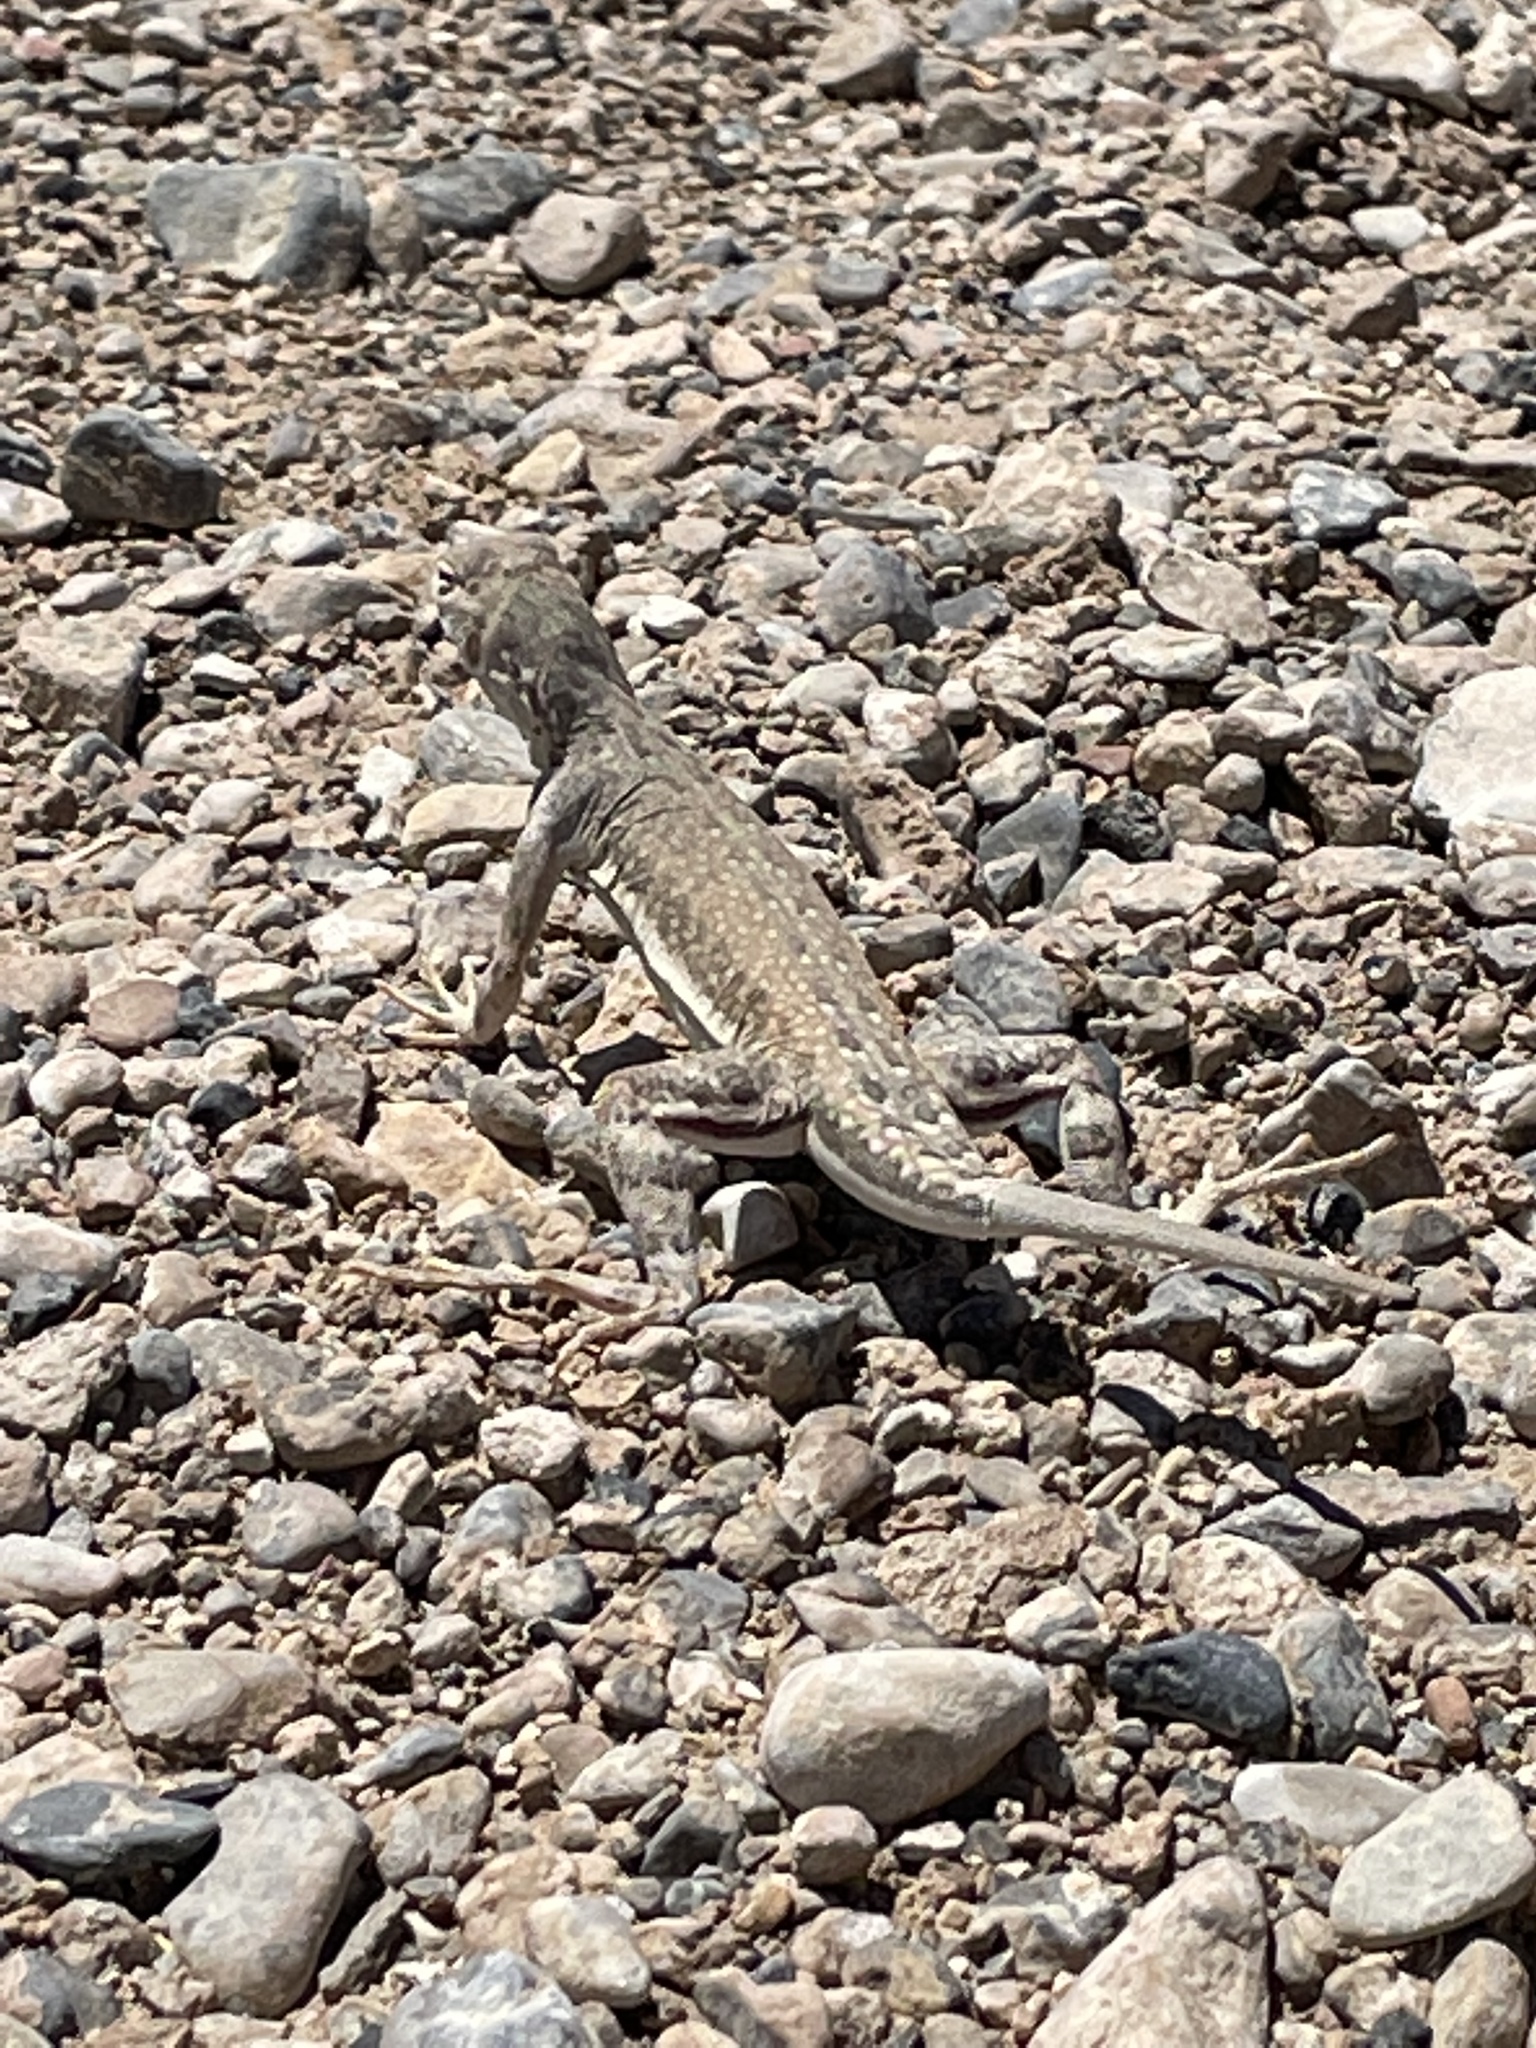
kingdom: Animalia
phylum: Chordata
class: Squamata
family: Phrynosomatidae
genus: Callisaurus
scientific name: Callisaurus draconoides
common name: Zebra-tailed lizard
